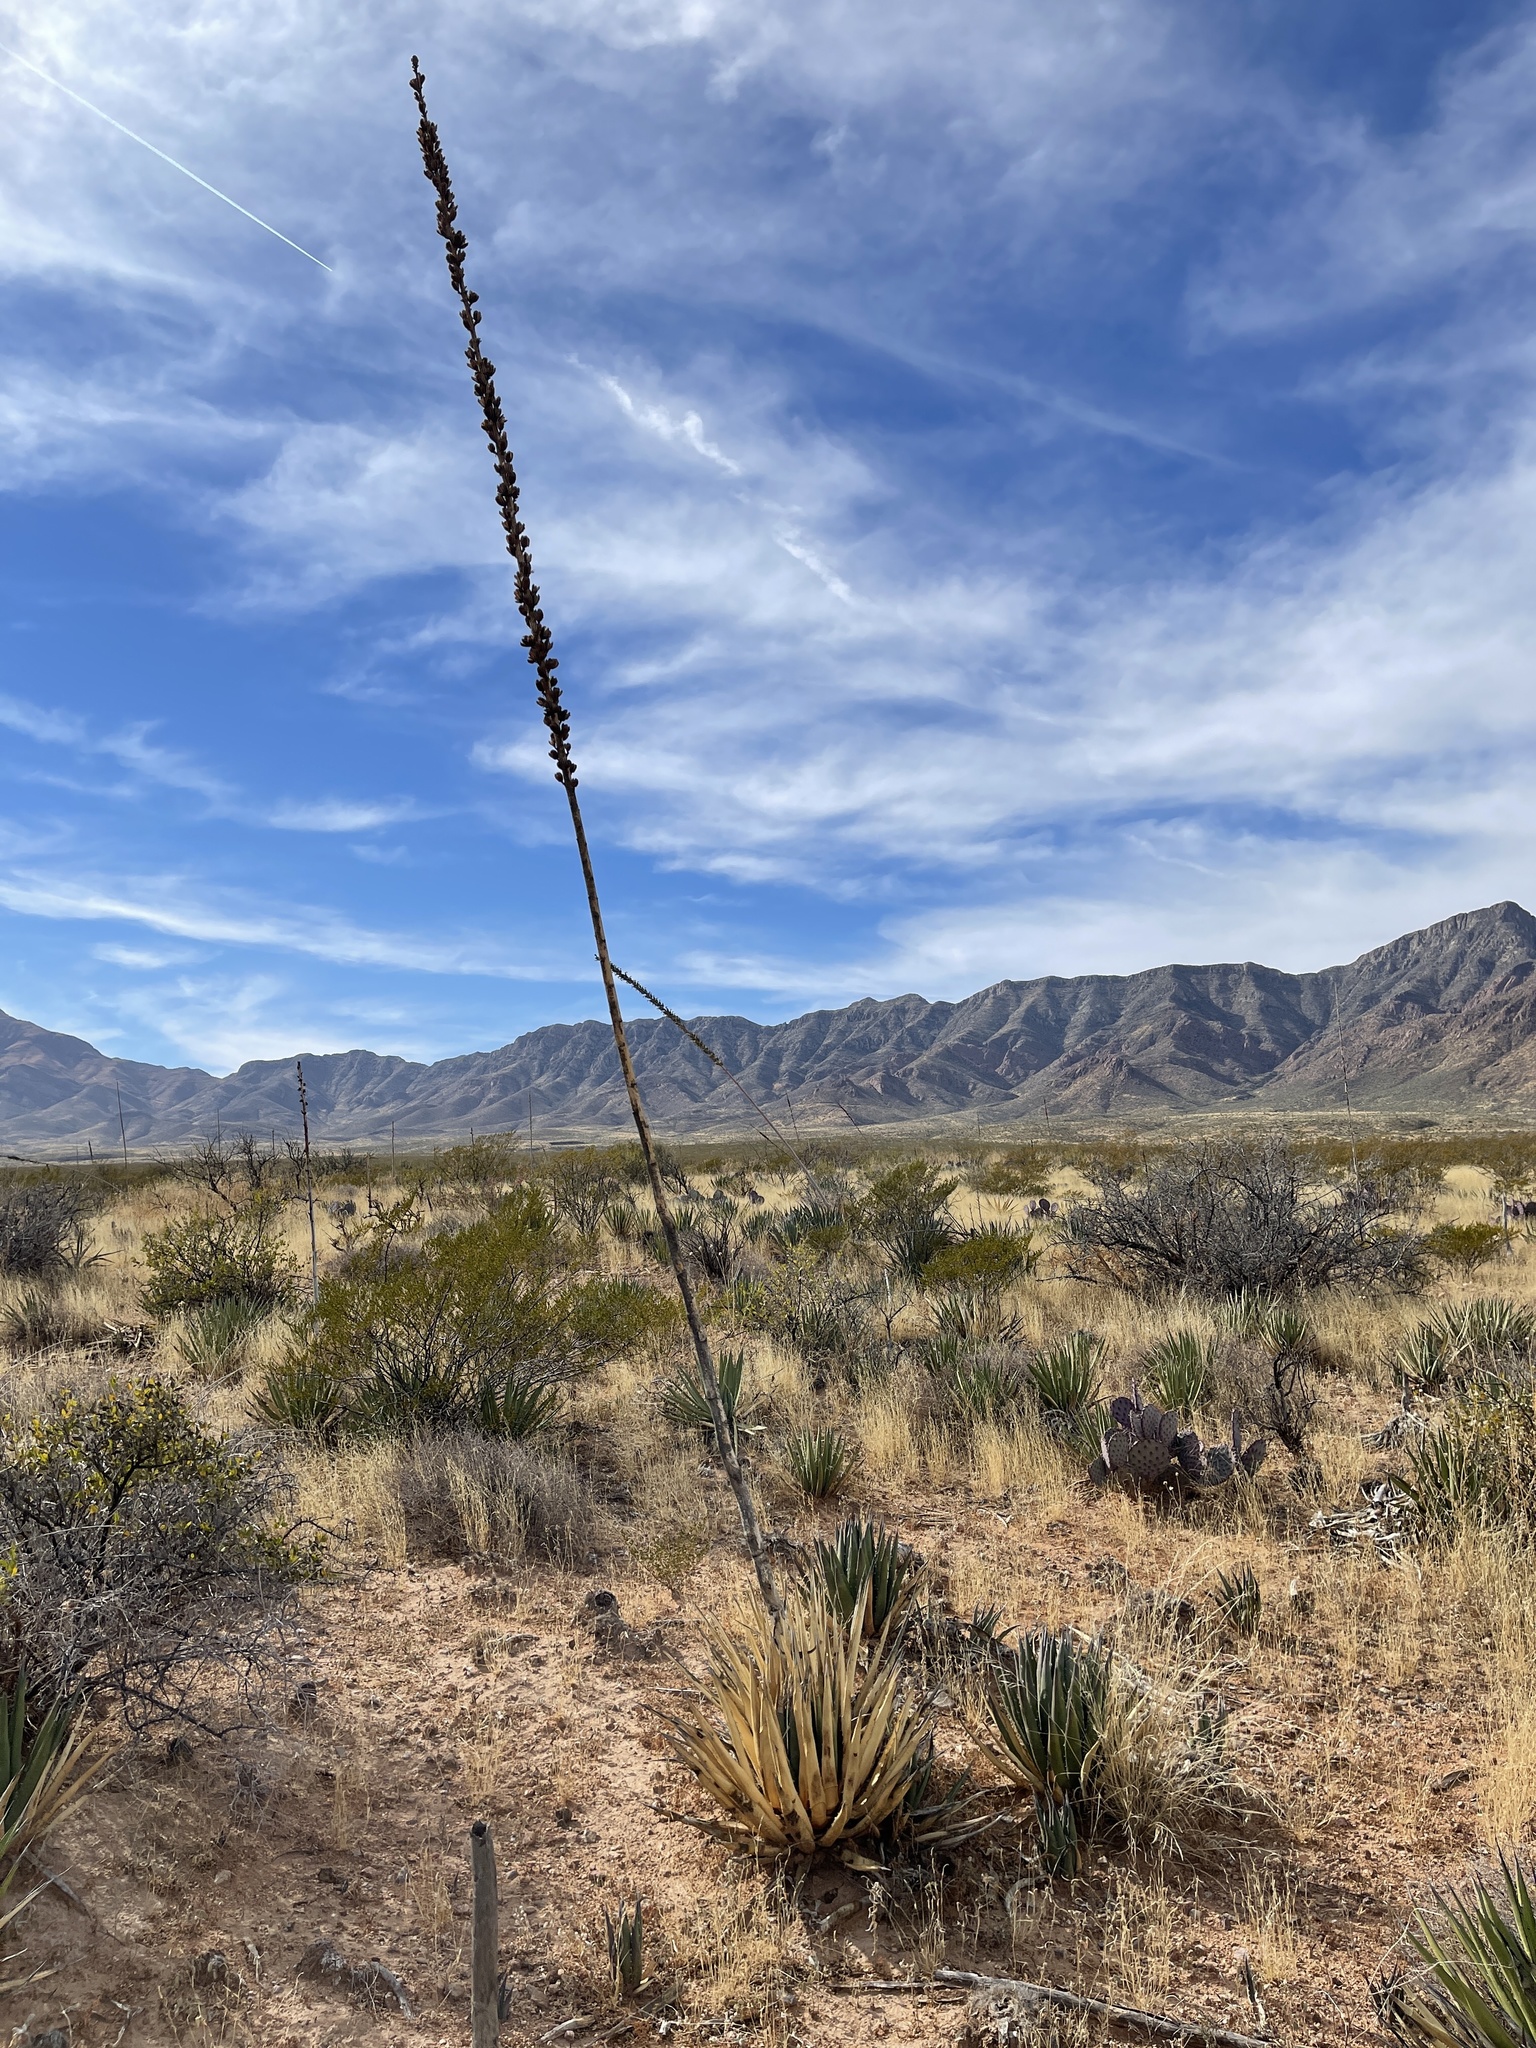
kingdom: Plantae
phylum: Tracheophyta
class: Liliopsida
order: Asparagales
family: Asparagaceae
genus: Agave
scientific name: Agave lechuguilla
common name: Lecheguilla agave
